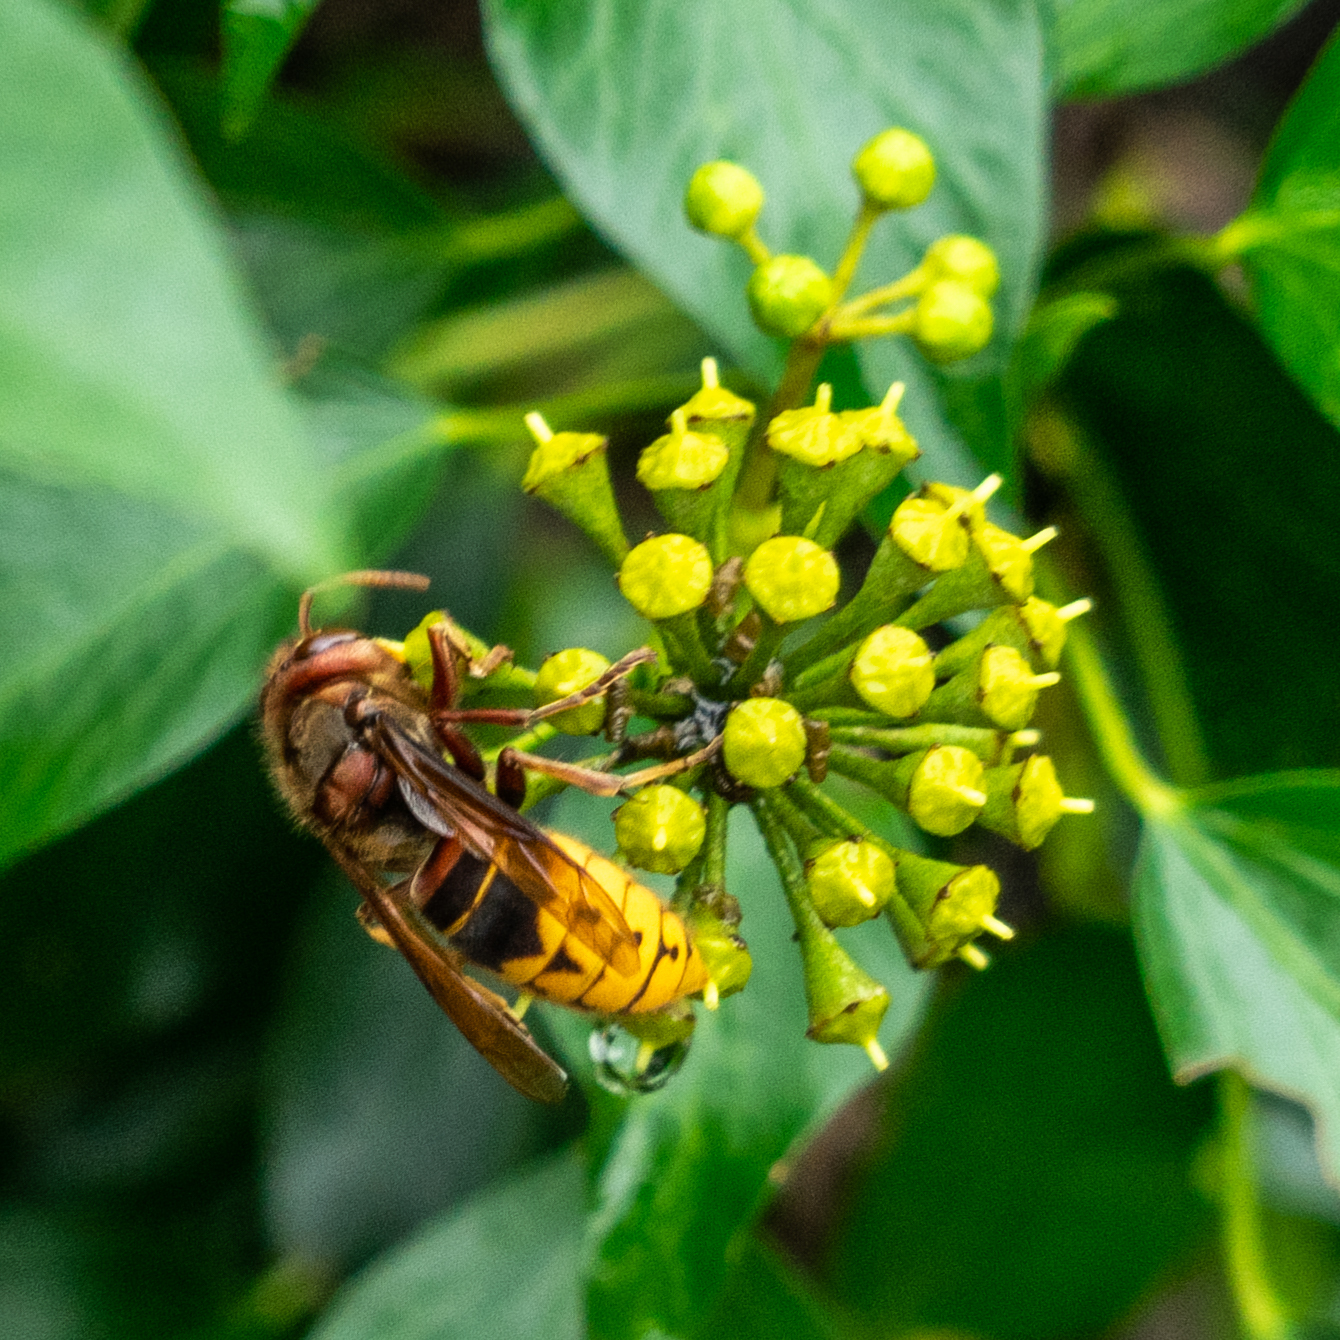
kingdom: Animalia
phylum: Arthropoda
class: Insecta
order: Hymenoptera
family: Vespidae
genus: Vespa
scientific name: Vespa crabro
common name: Hornet
